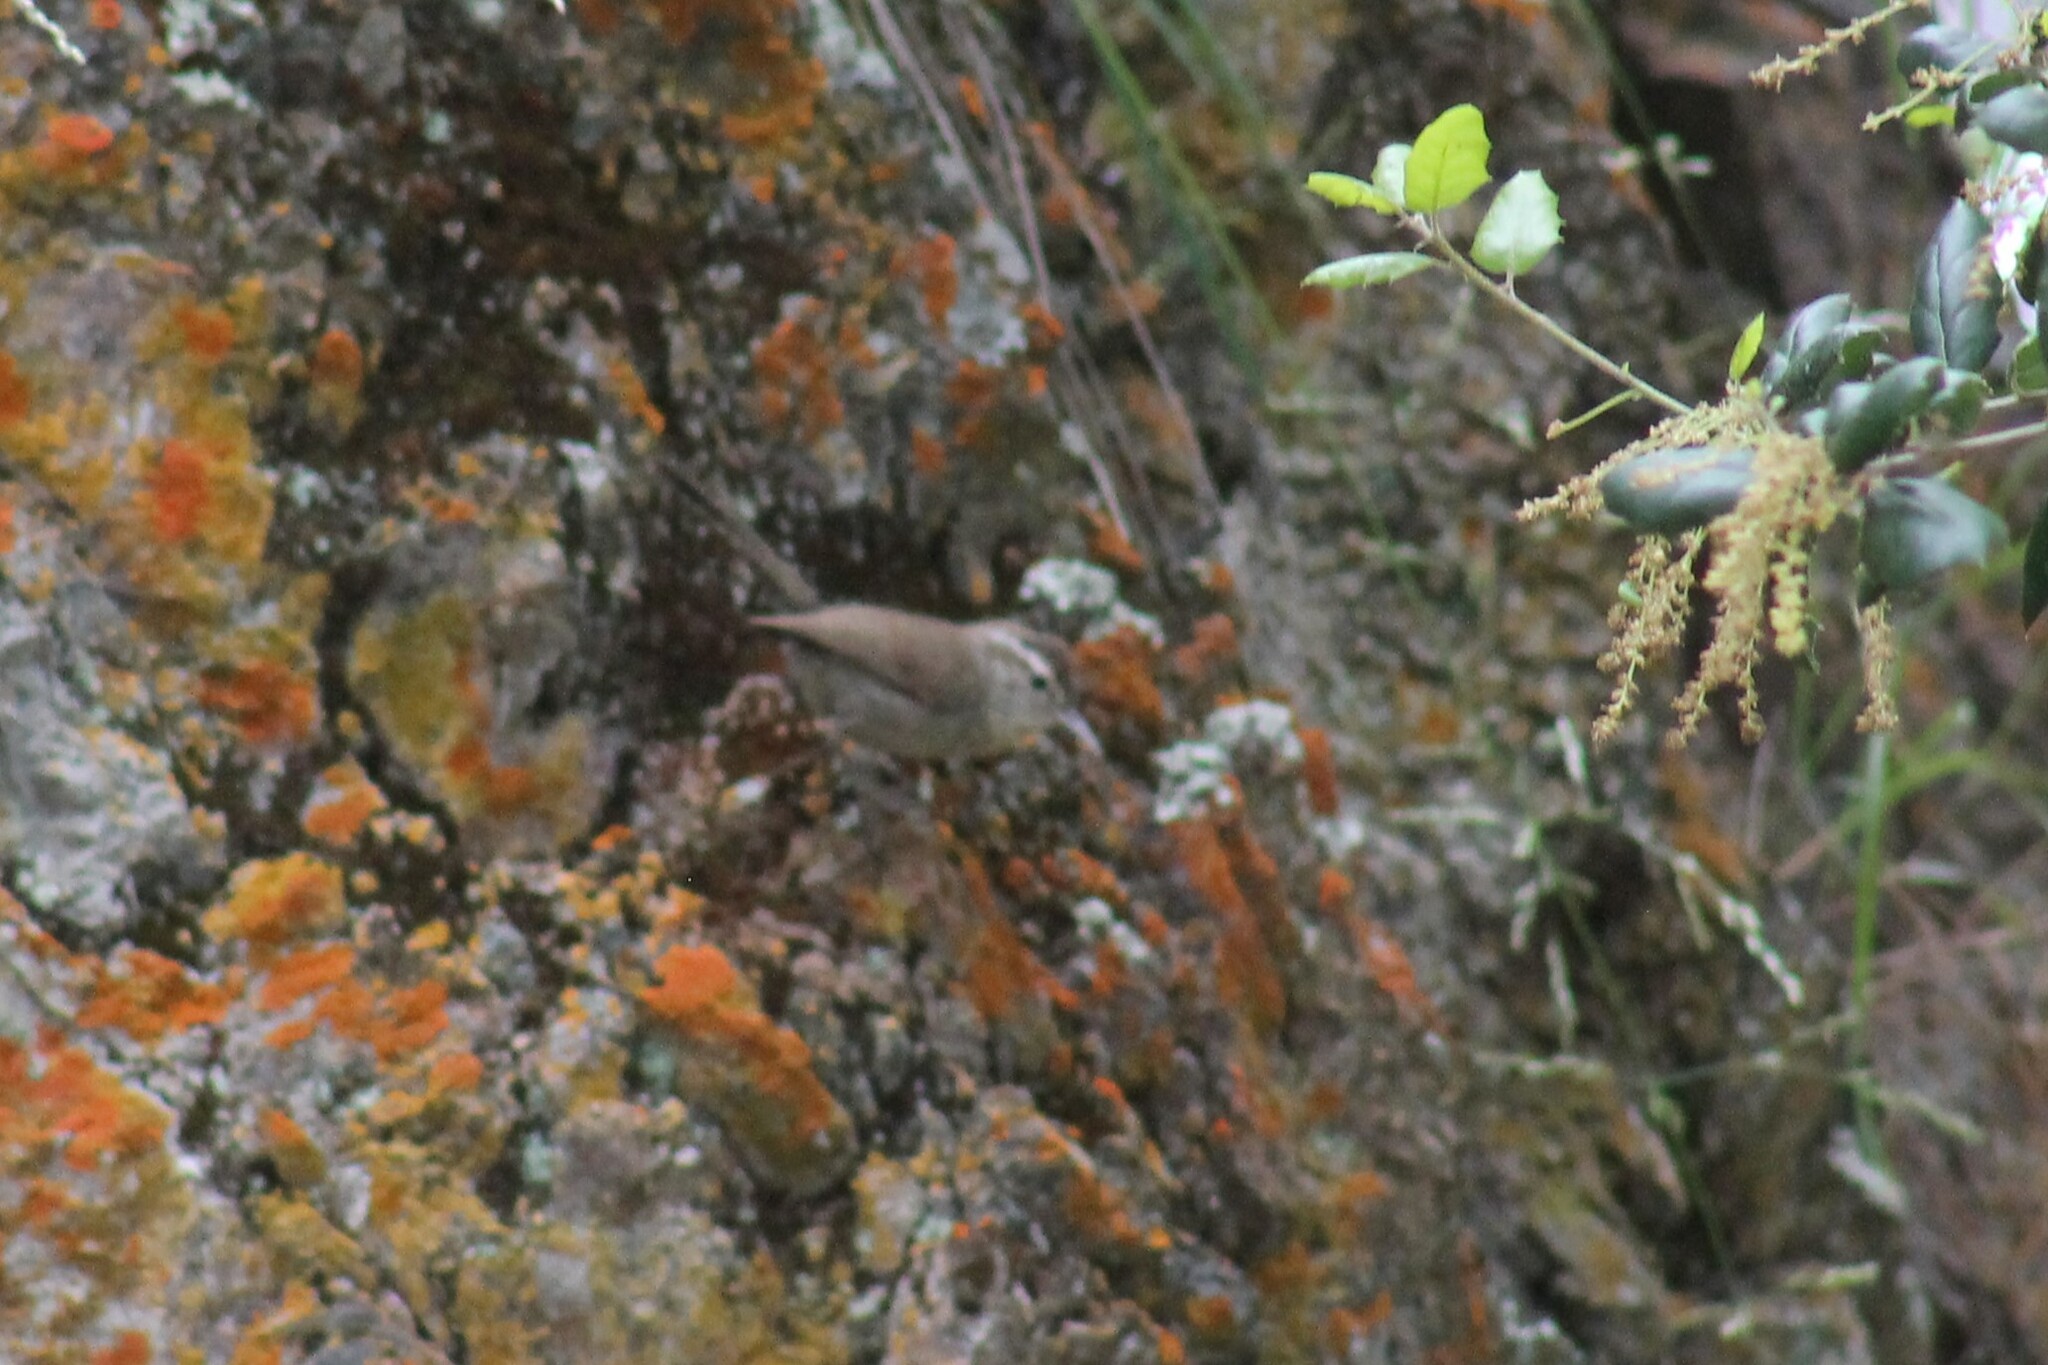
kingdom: Animalia
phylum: Chordata
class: Aves
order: Passeriformes
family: Troglodytidae
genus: Thryomanes
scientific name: Thryomanes bewickii
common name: Bewick's wren
